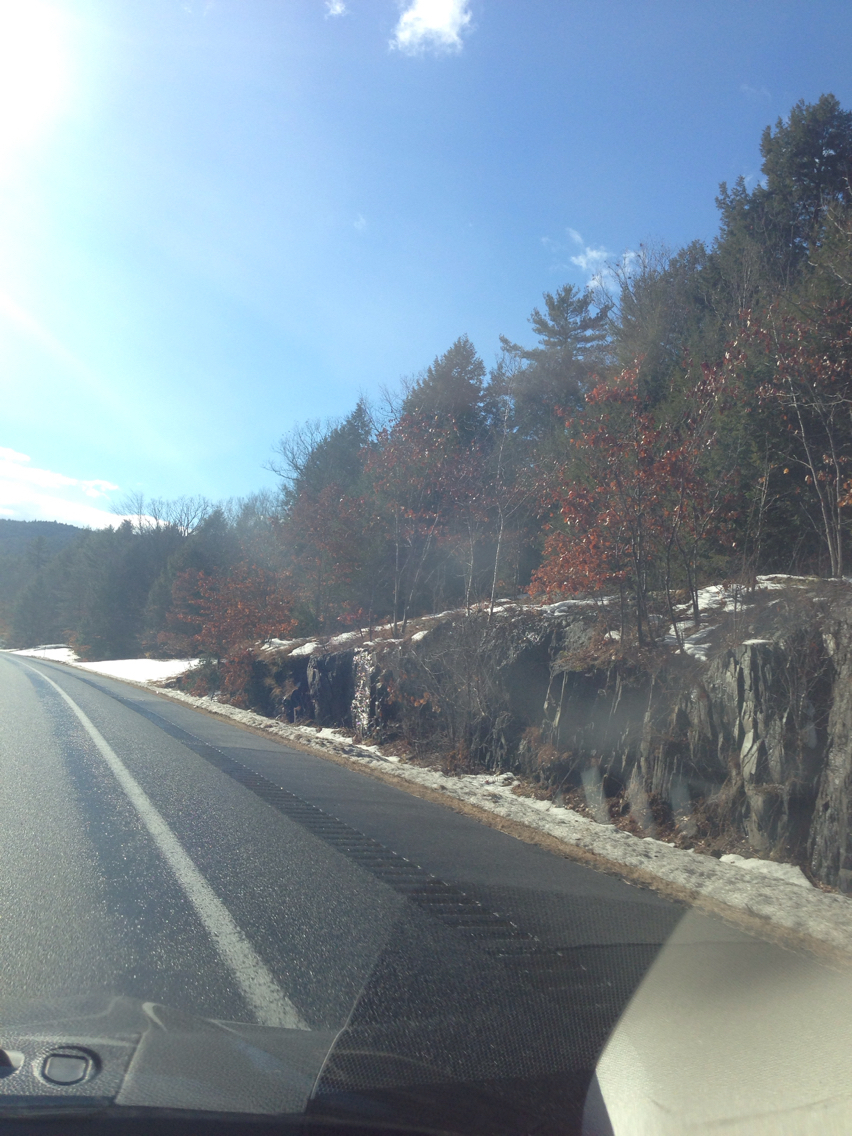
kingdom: Plantae
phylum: Tracheophyta
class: Magnoliopsida
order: Fagales
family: Fagaceae
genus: Quercus
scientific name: Quercus rubra
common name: Red oak
